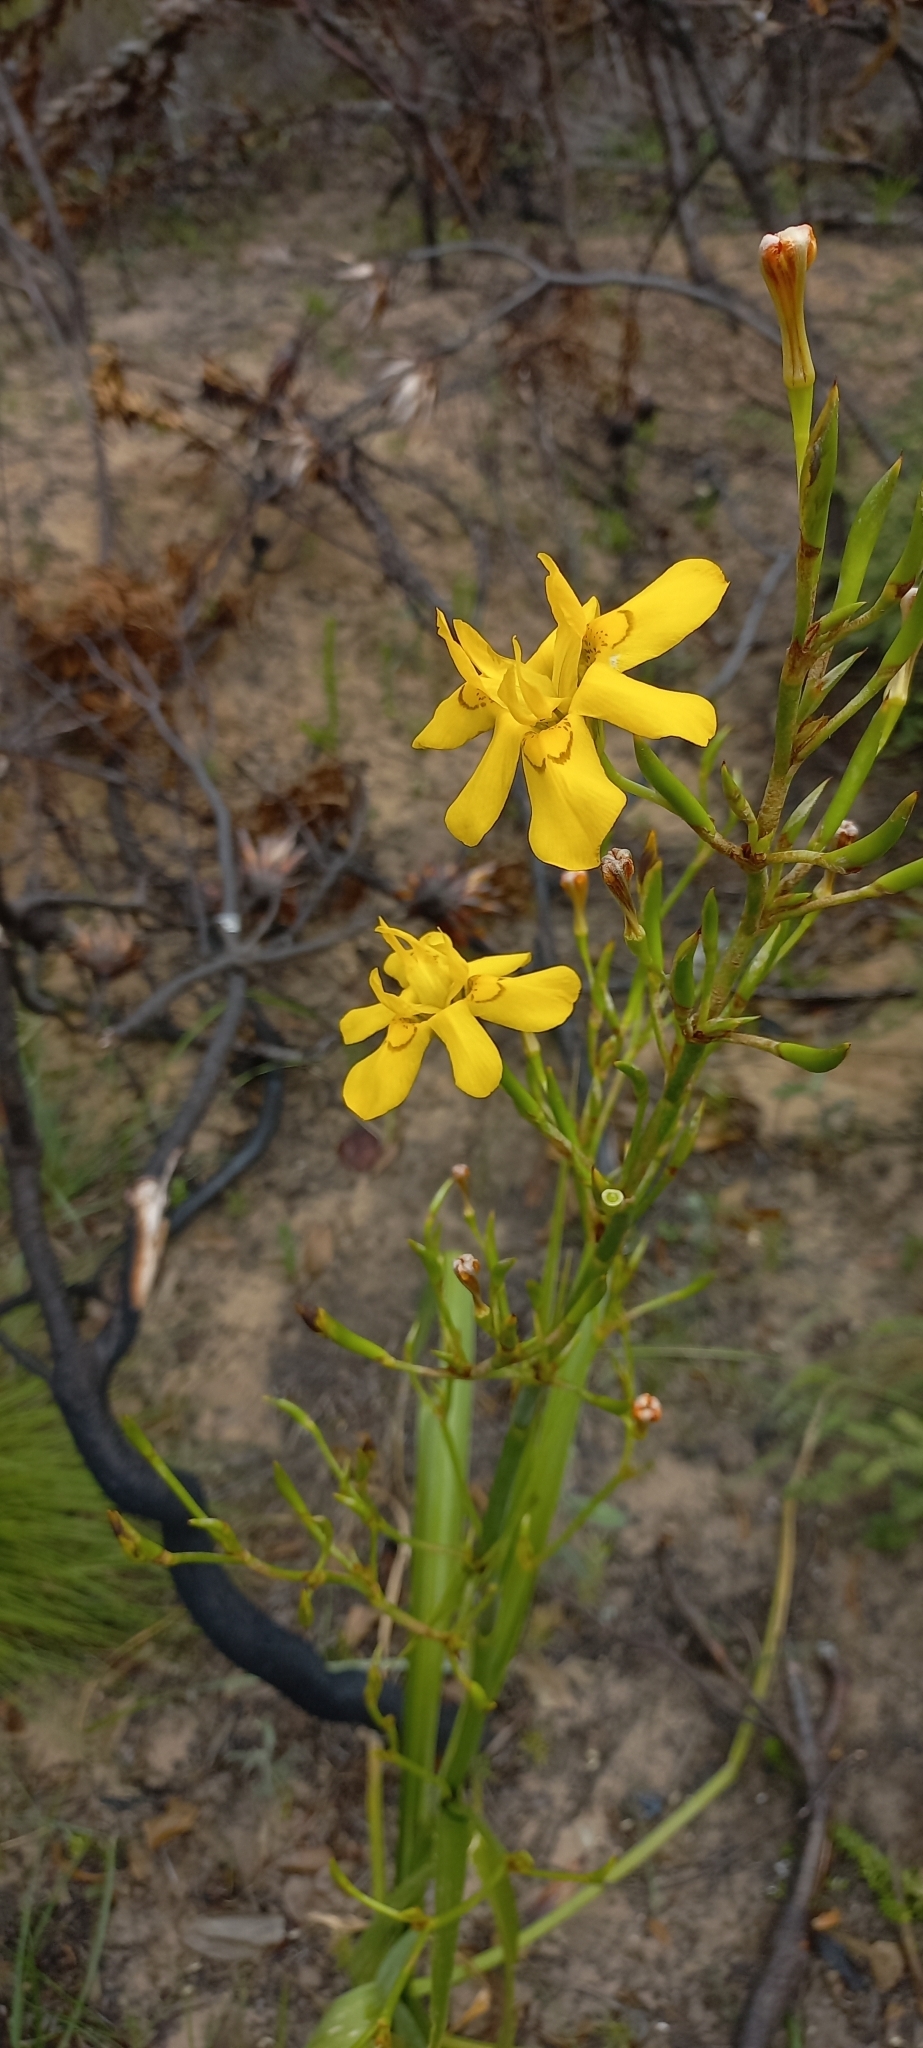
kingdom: Plantae
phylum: Tracheophyta
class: Liliopsida
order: Asparagales
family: Iridaceae
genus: Moraea
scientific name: Moraea ramosissima
